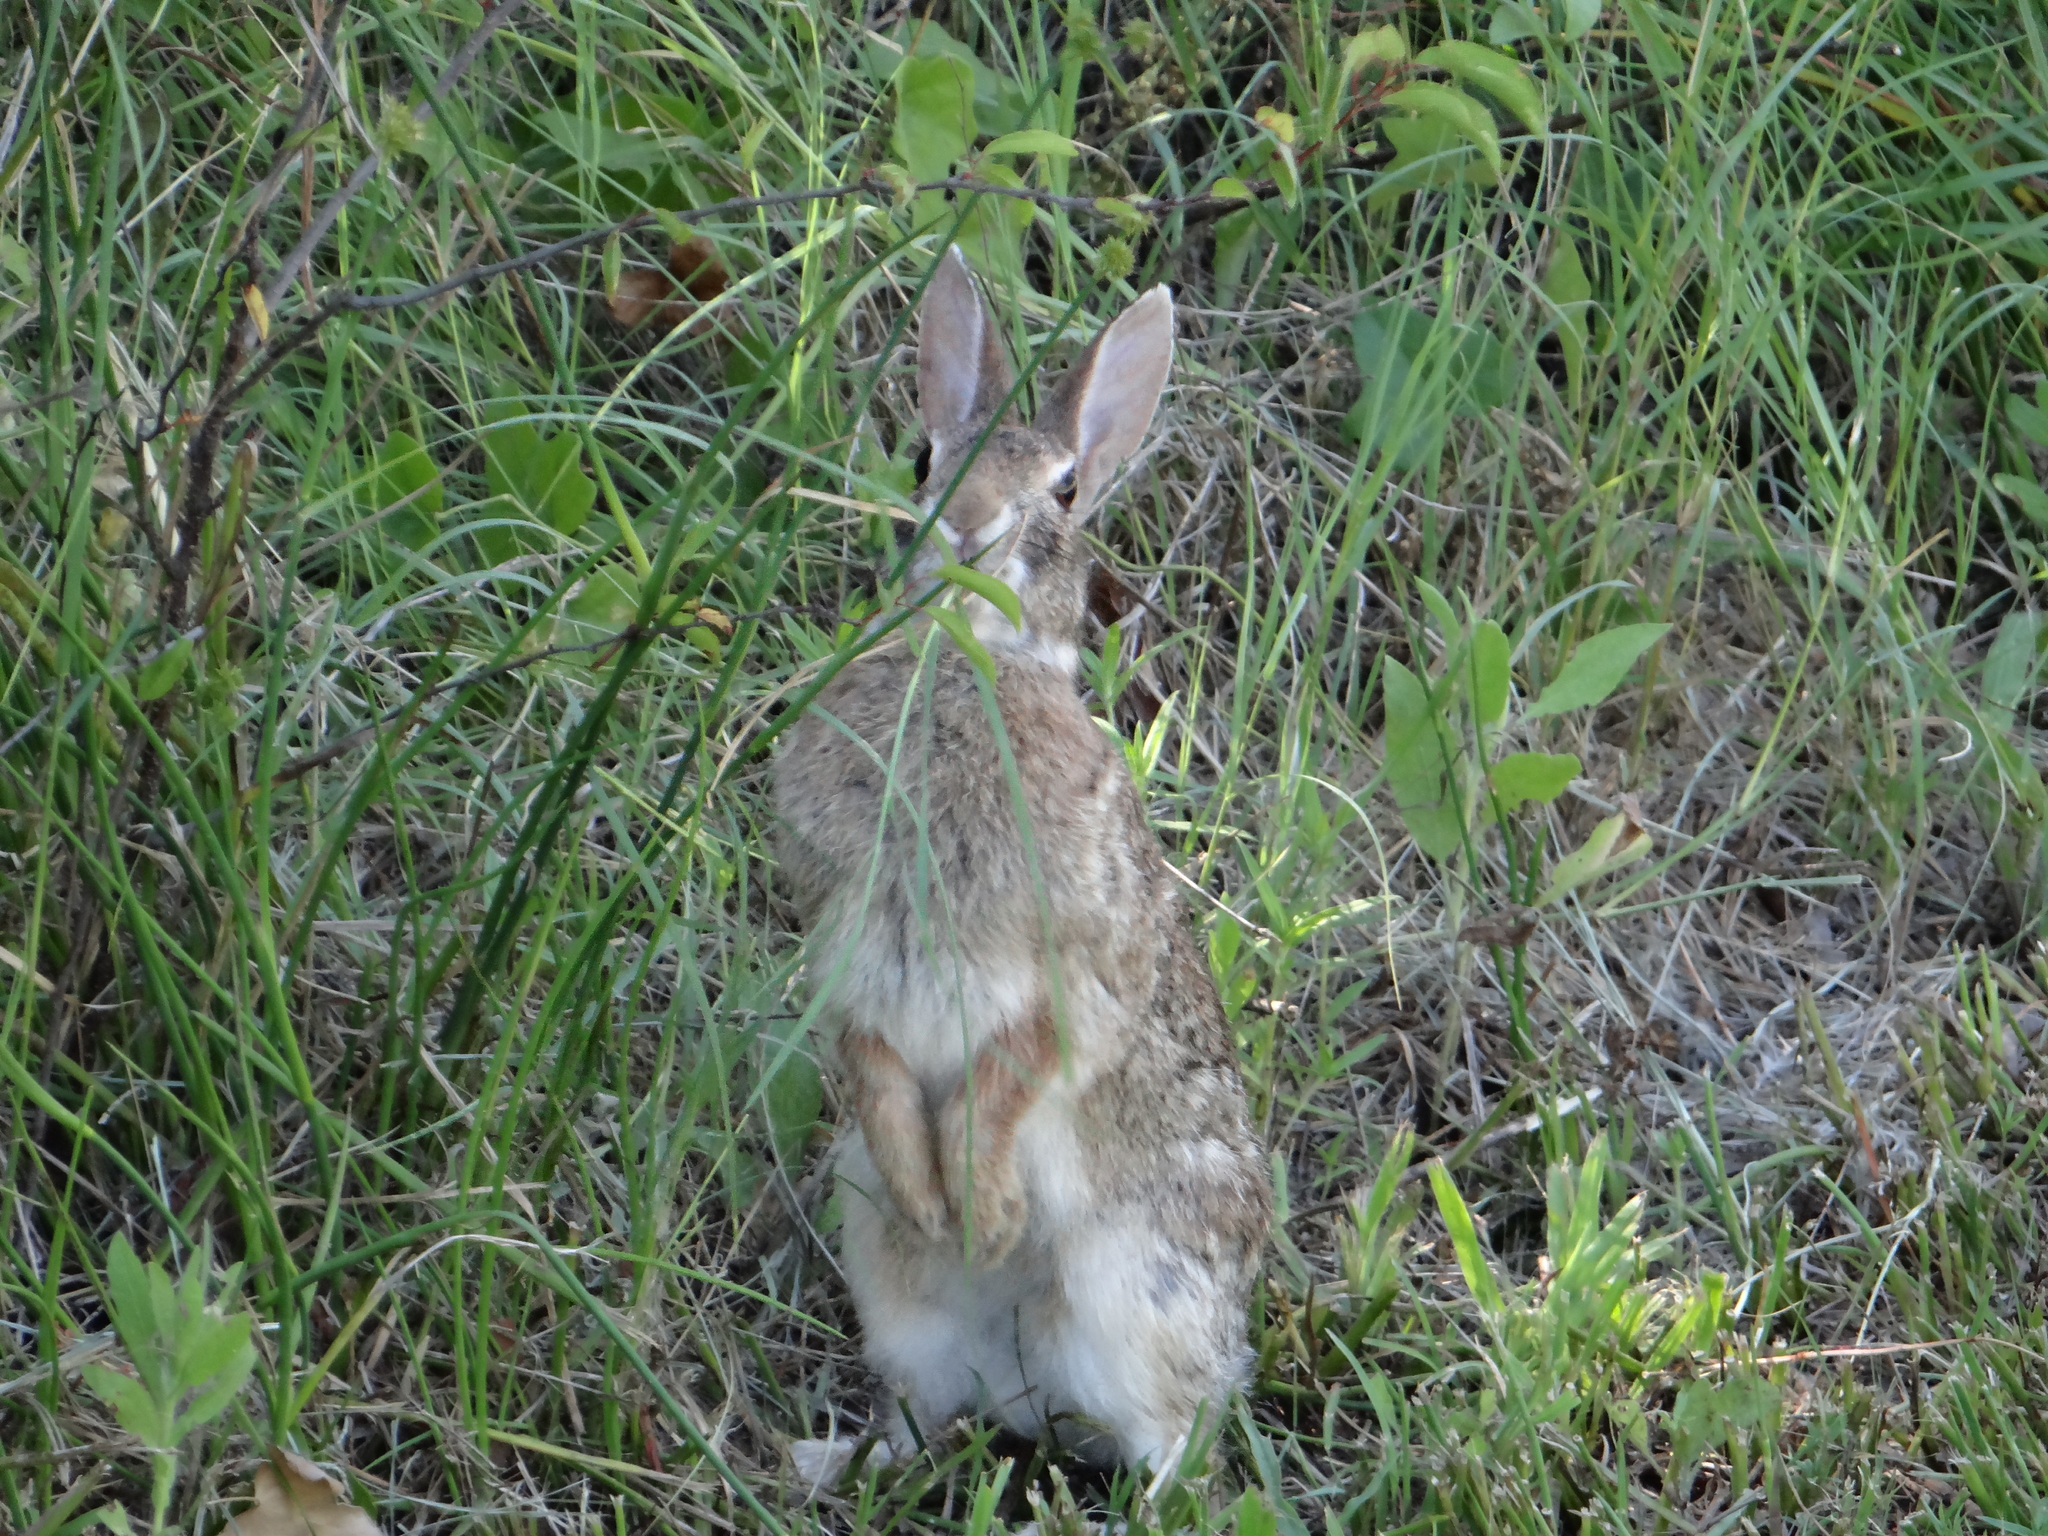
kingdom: Animalia
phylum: Chordata
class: Mammalia
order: Lagomorpha
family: Leporidae
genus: Sylvilagus
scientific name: Sylvilagus floridanus
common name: Eastern cottontail
